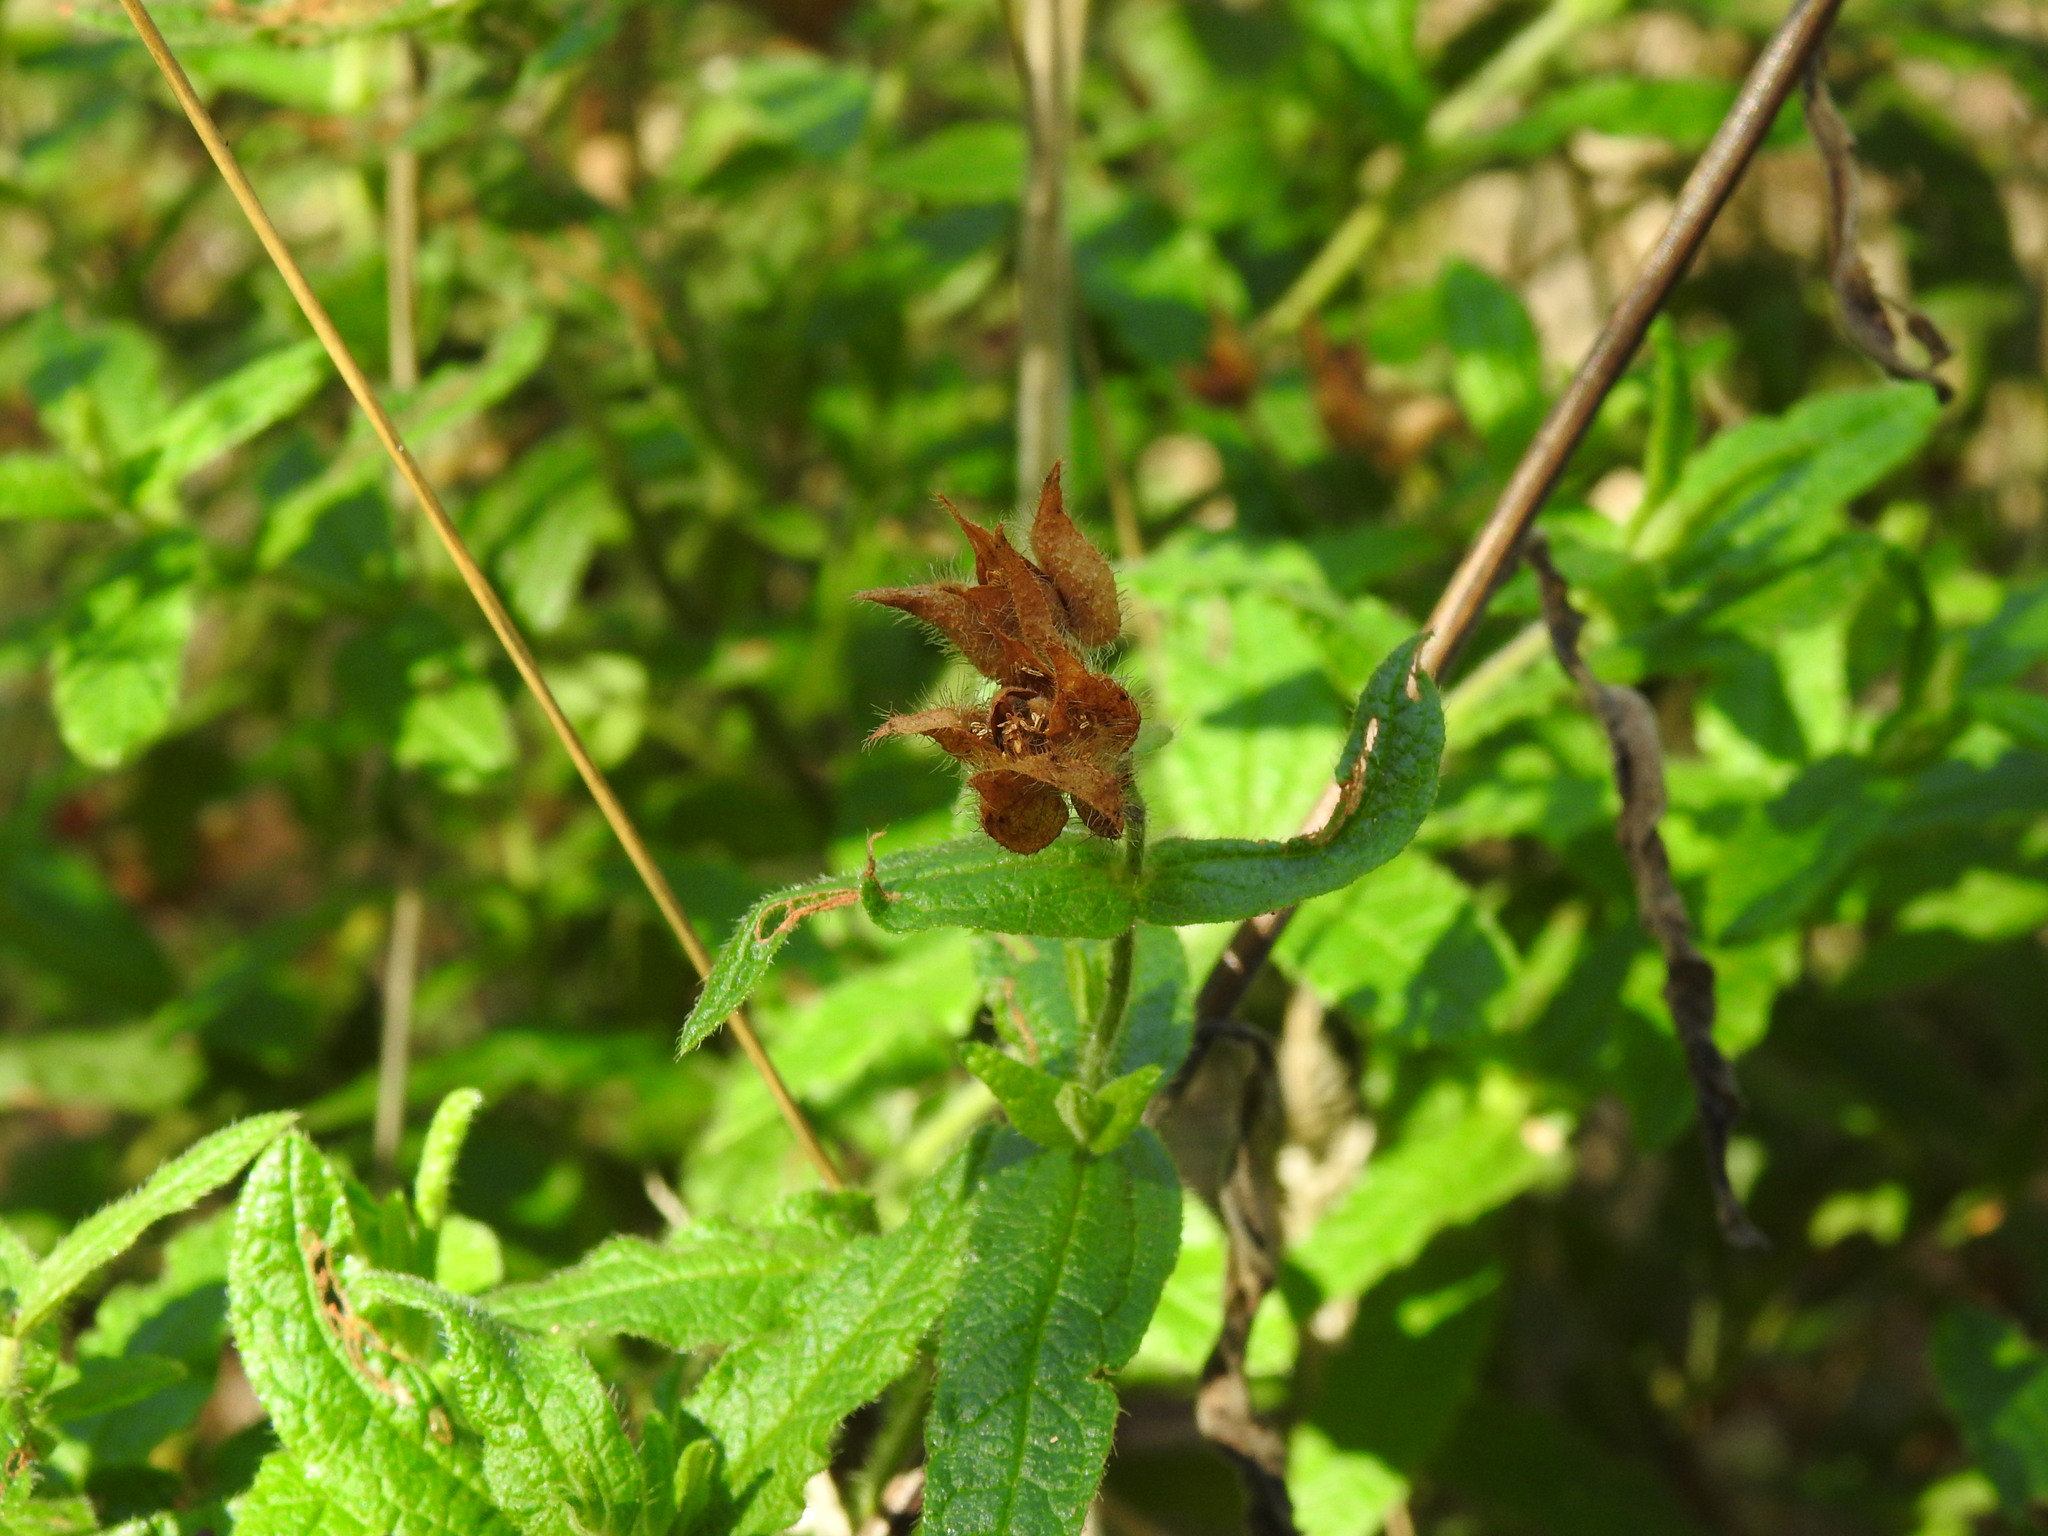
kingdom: Plantae
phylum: Tracheophyta
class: Magnoliopsida
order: Malvales
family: Cistaceae
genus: Cistus
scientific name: Cistus inflatus
